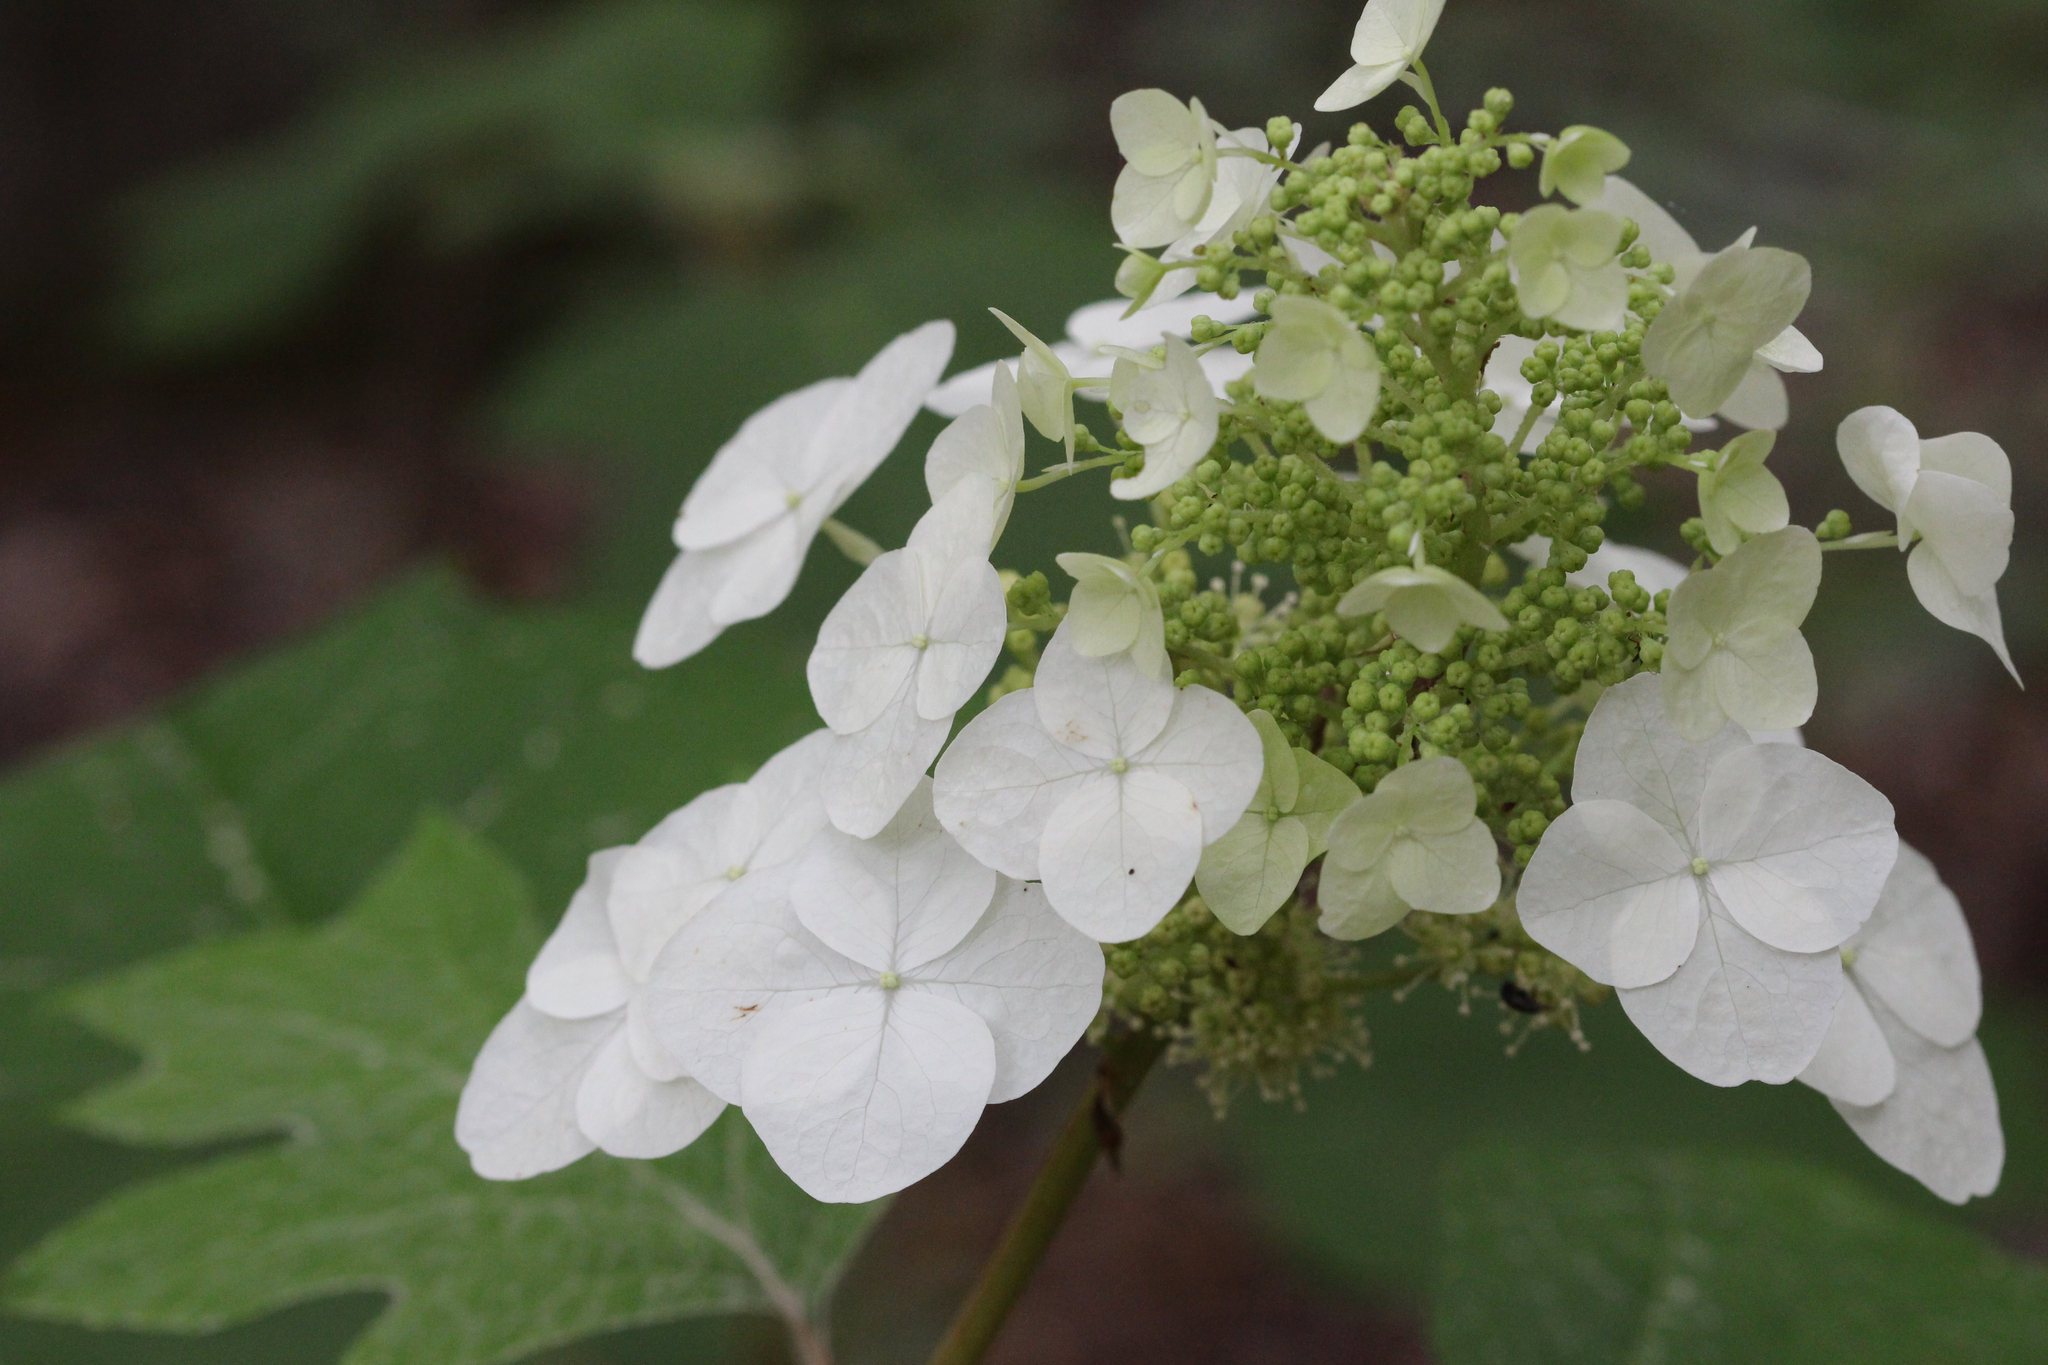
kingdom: Plantae
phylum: Tracheophyta
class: Magnoliopsida
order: Cornales
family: Hydrangeaceae
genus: Hydrangea
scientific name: Hydrangea quercifolia
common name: Oak-leaf hydrangea
